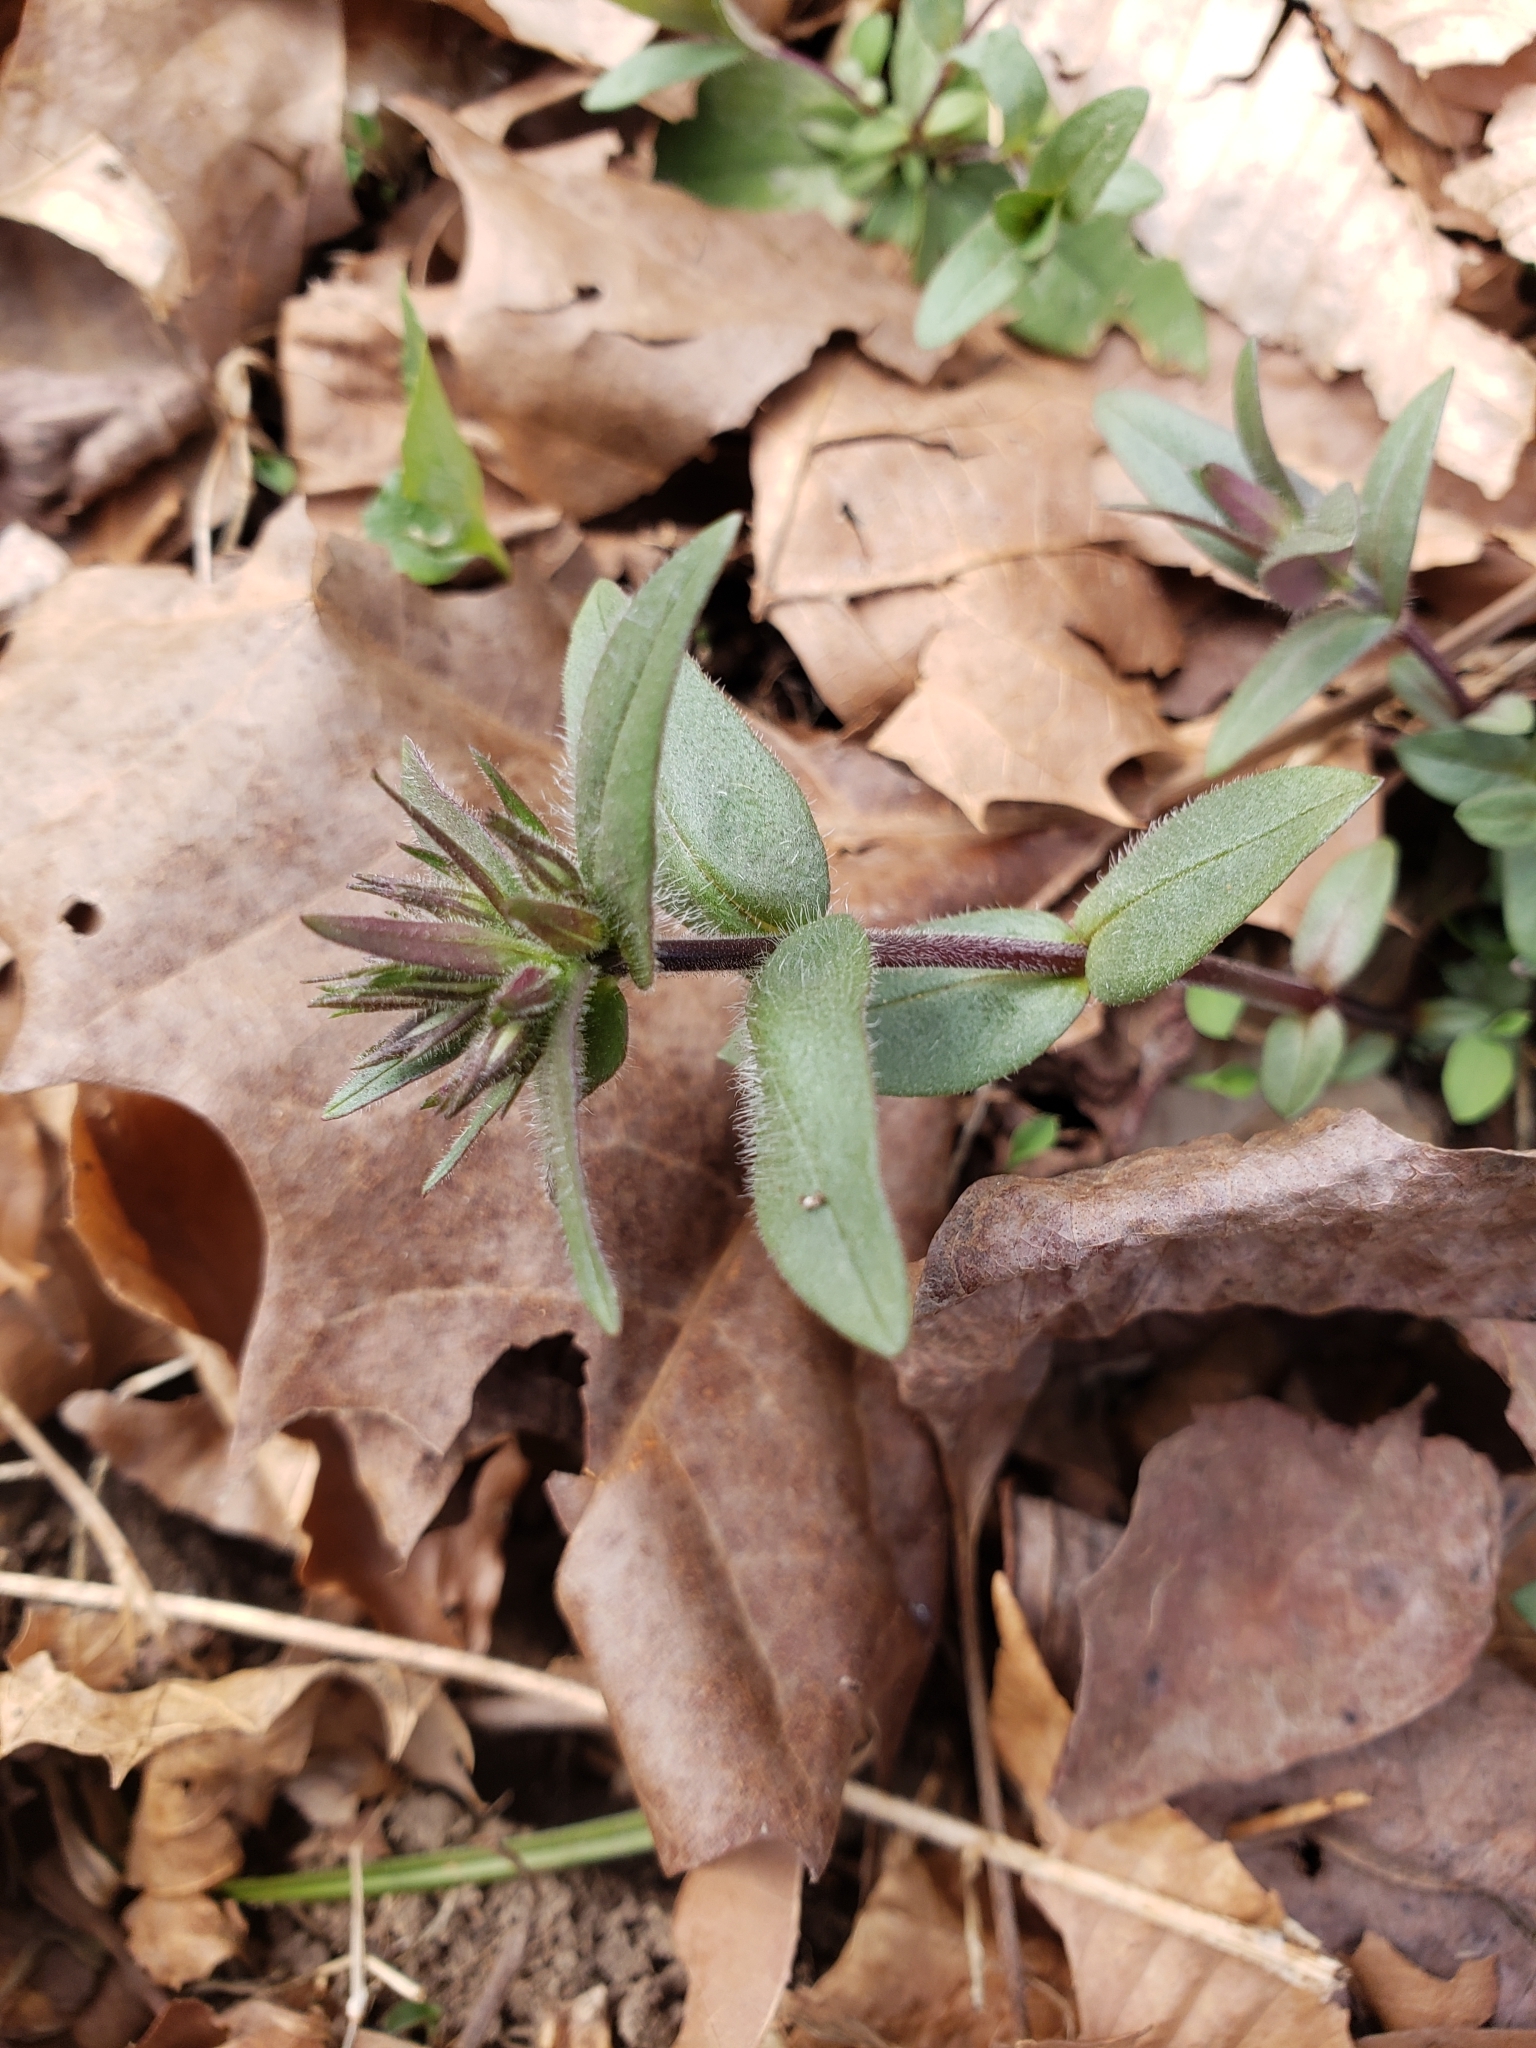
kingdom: Plantae
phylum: Tracheophyta
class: Magnoliopsida
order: Ericales
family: Polemoniaceae
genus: Phlox
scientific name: Phlox divaricata
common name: Blue phlox
